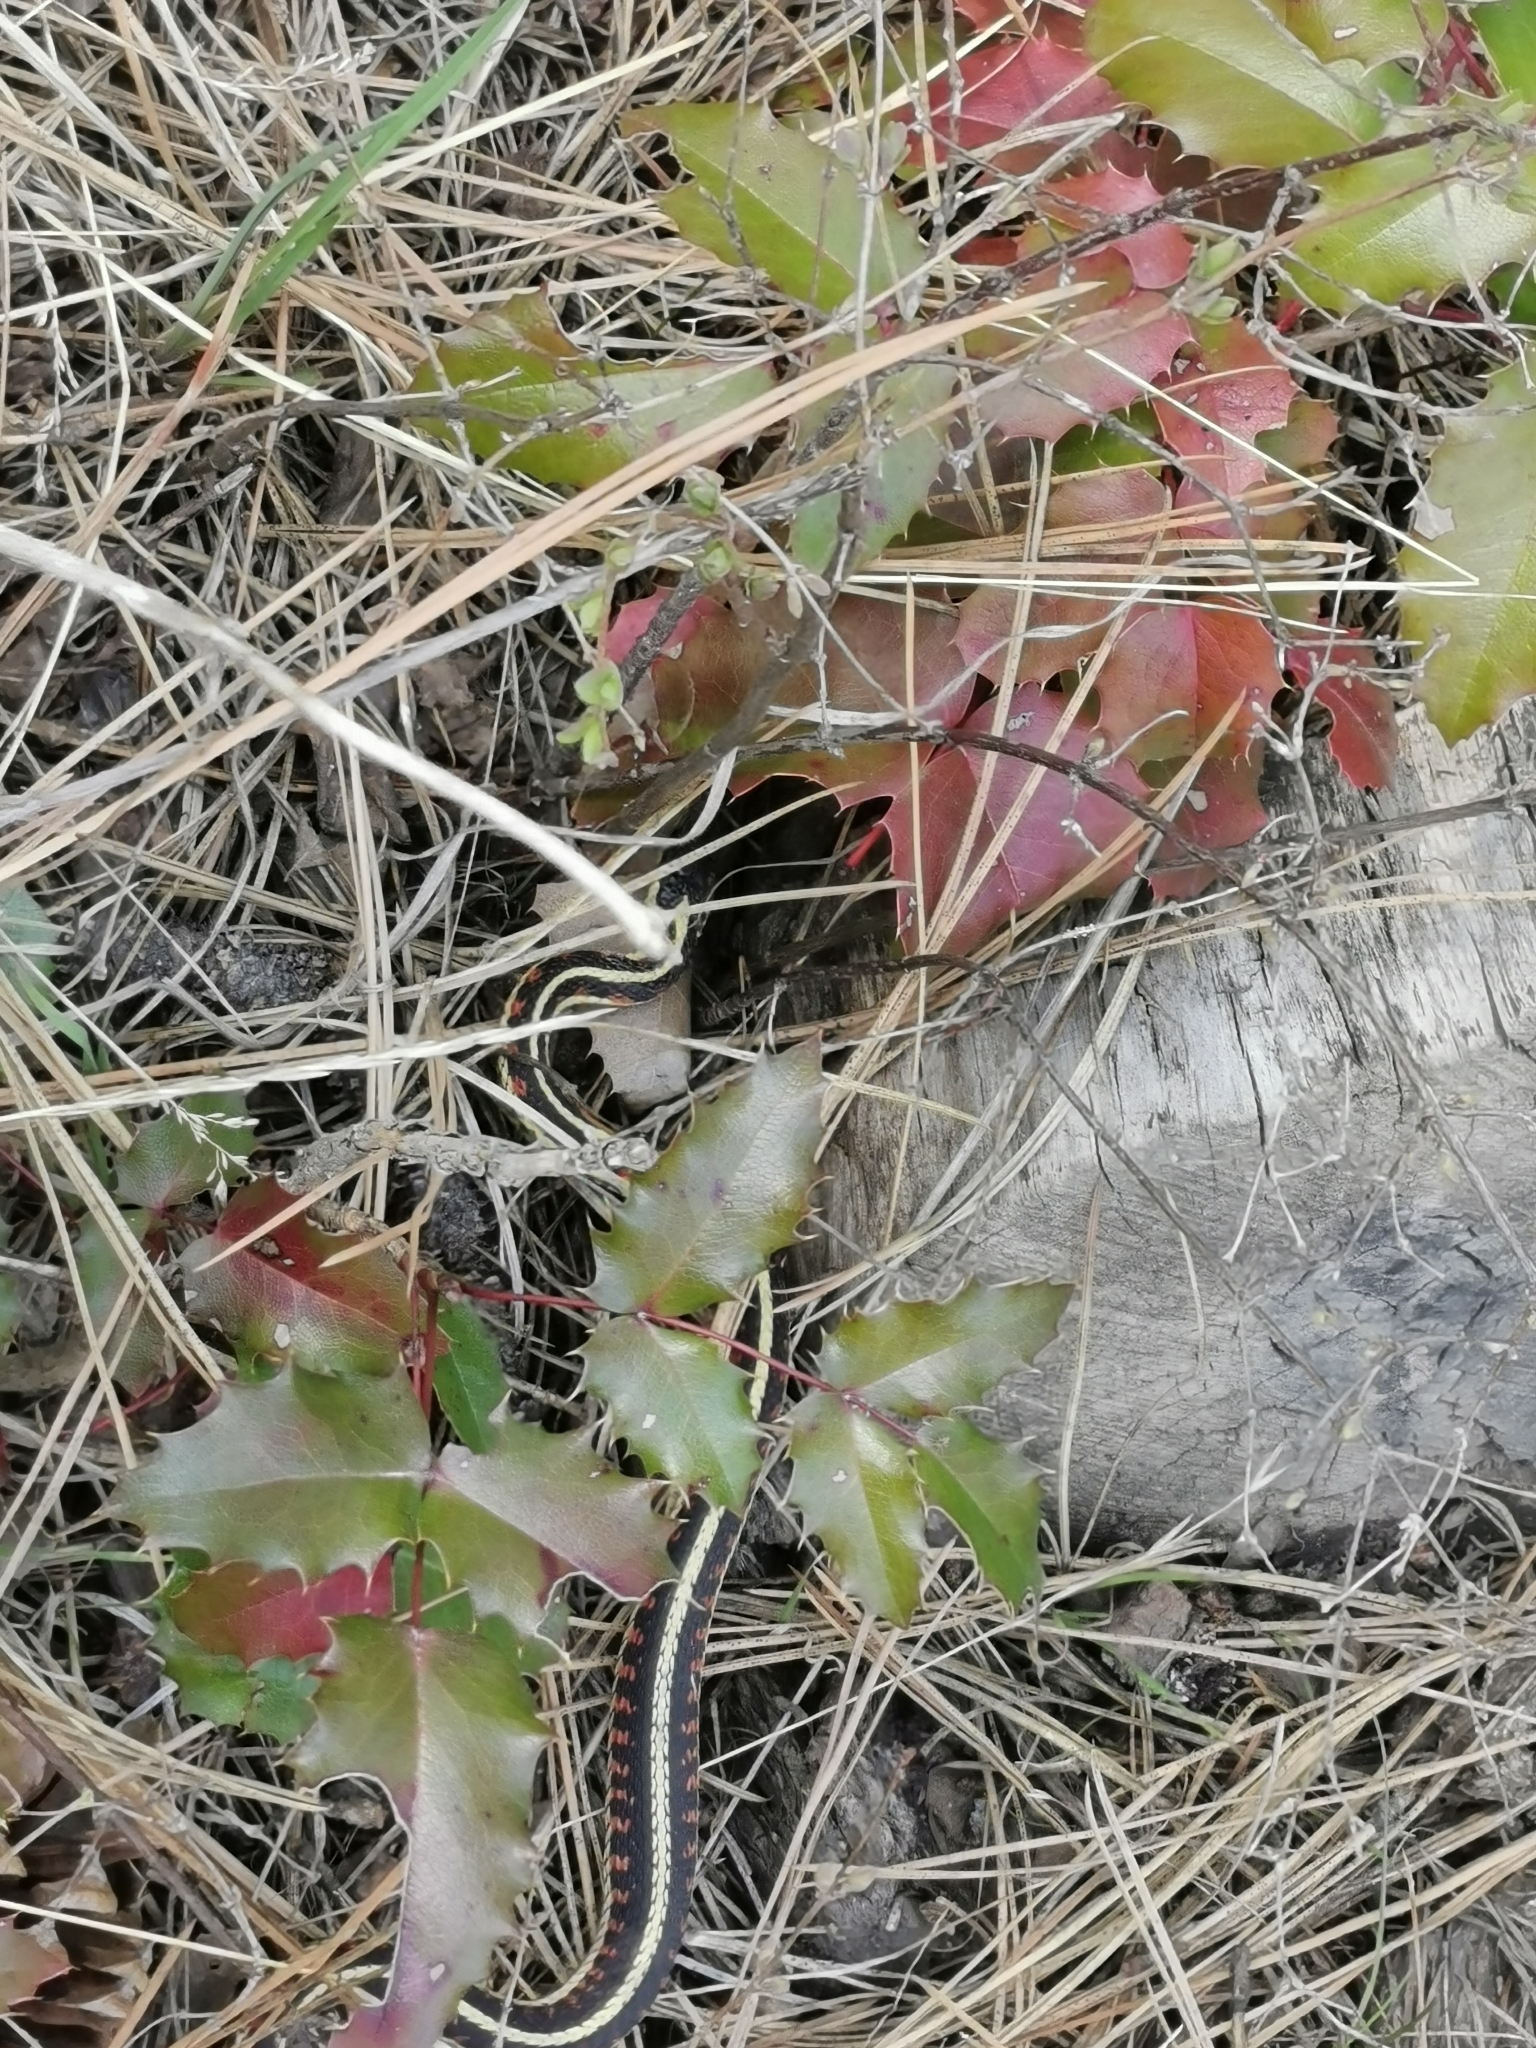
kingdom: Animalia
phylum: Chordata
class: Squamata
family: Colubridae
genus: Thamnophis
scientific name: Thamnophis sirtalis
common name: Common garter snake
